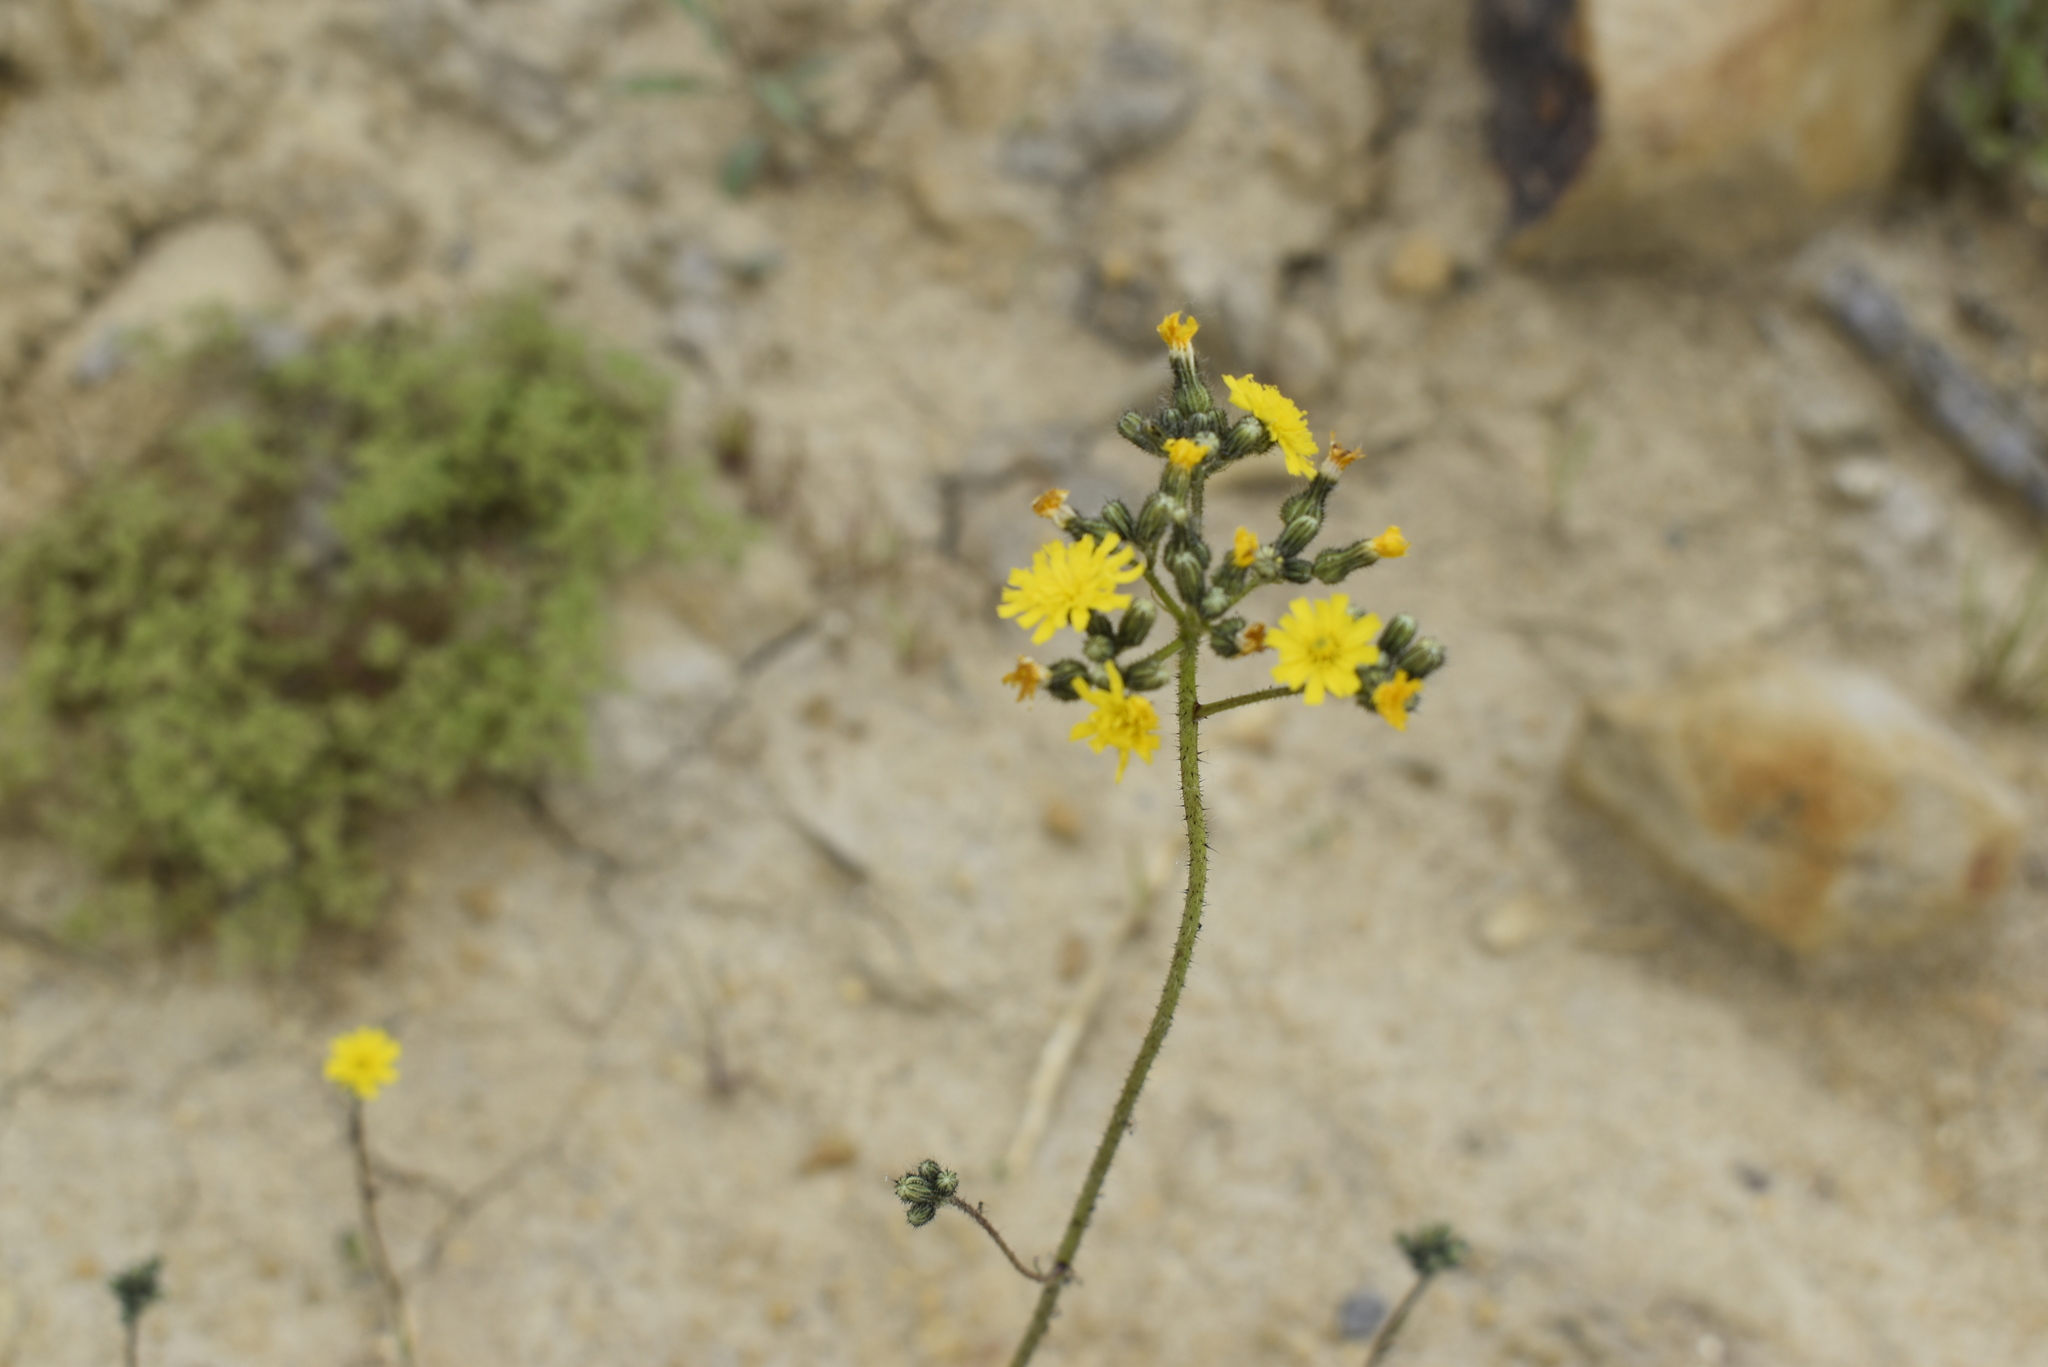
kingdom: Plantae
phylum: Tracheophyta
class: Magnoliopsida
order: Asterales
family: Asteraceae
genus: Pilosella
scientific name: Pilosella floribunda
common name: Glaucous hawkweed
